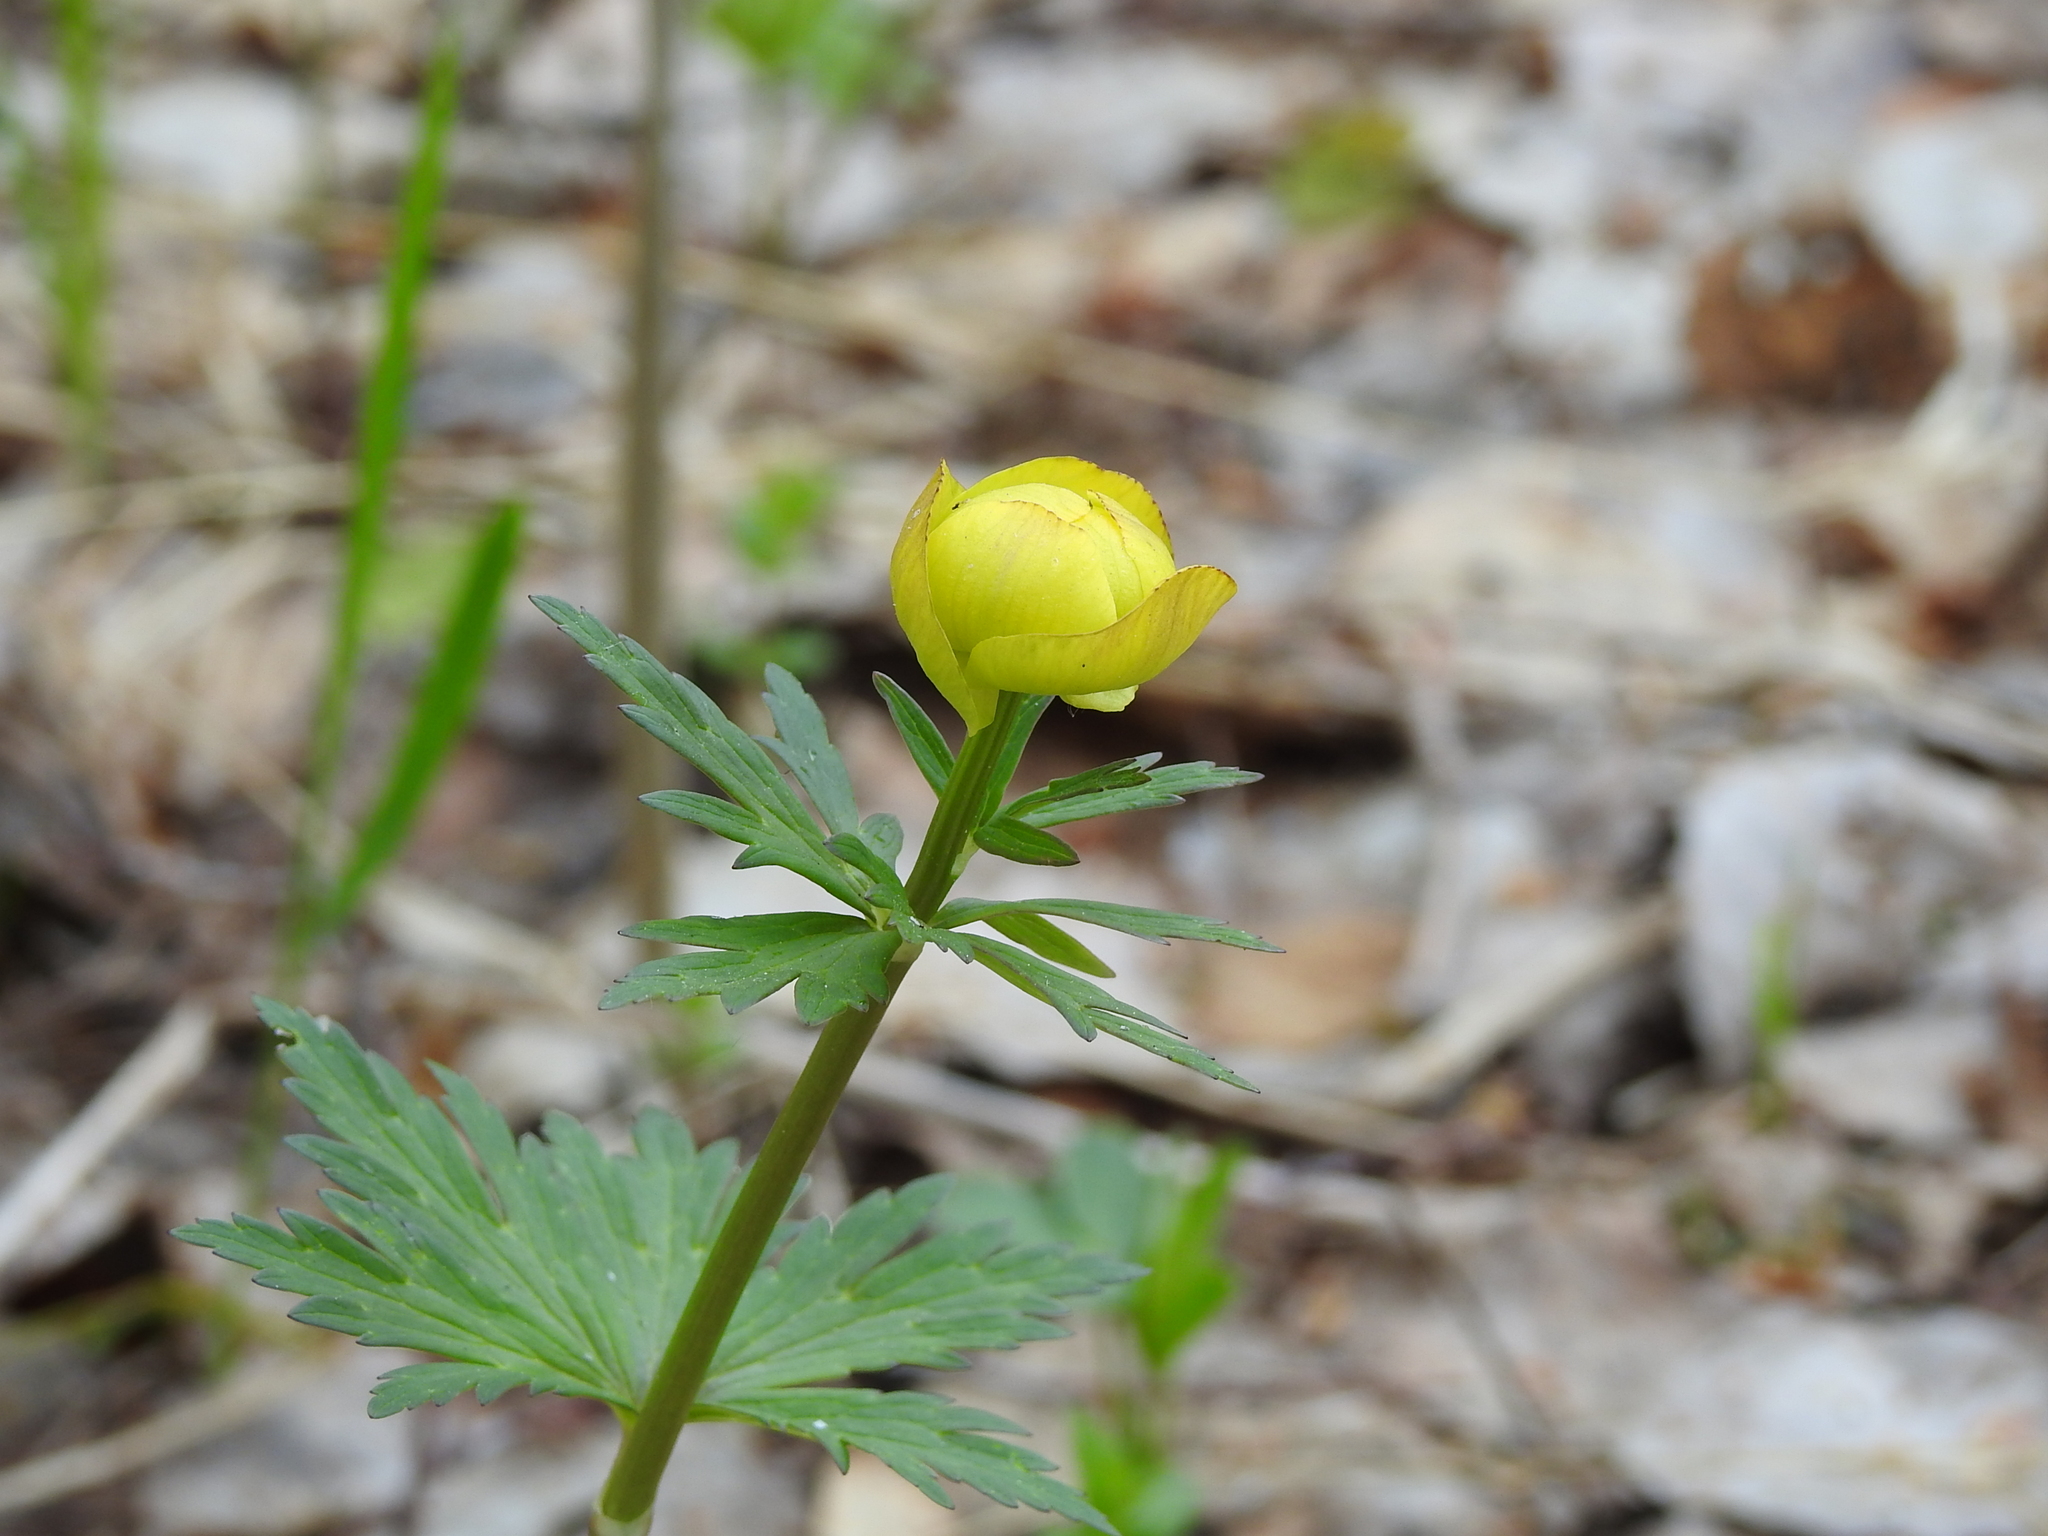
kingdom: Plantae
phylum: Tracheophyta
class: Magnoliopsida
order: Ranunculales
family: Ranunculaceae
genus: Trollius
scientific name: Trollius europaeus
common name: European globeflower
